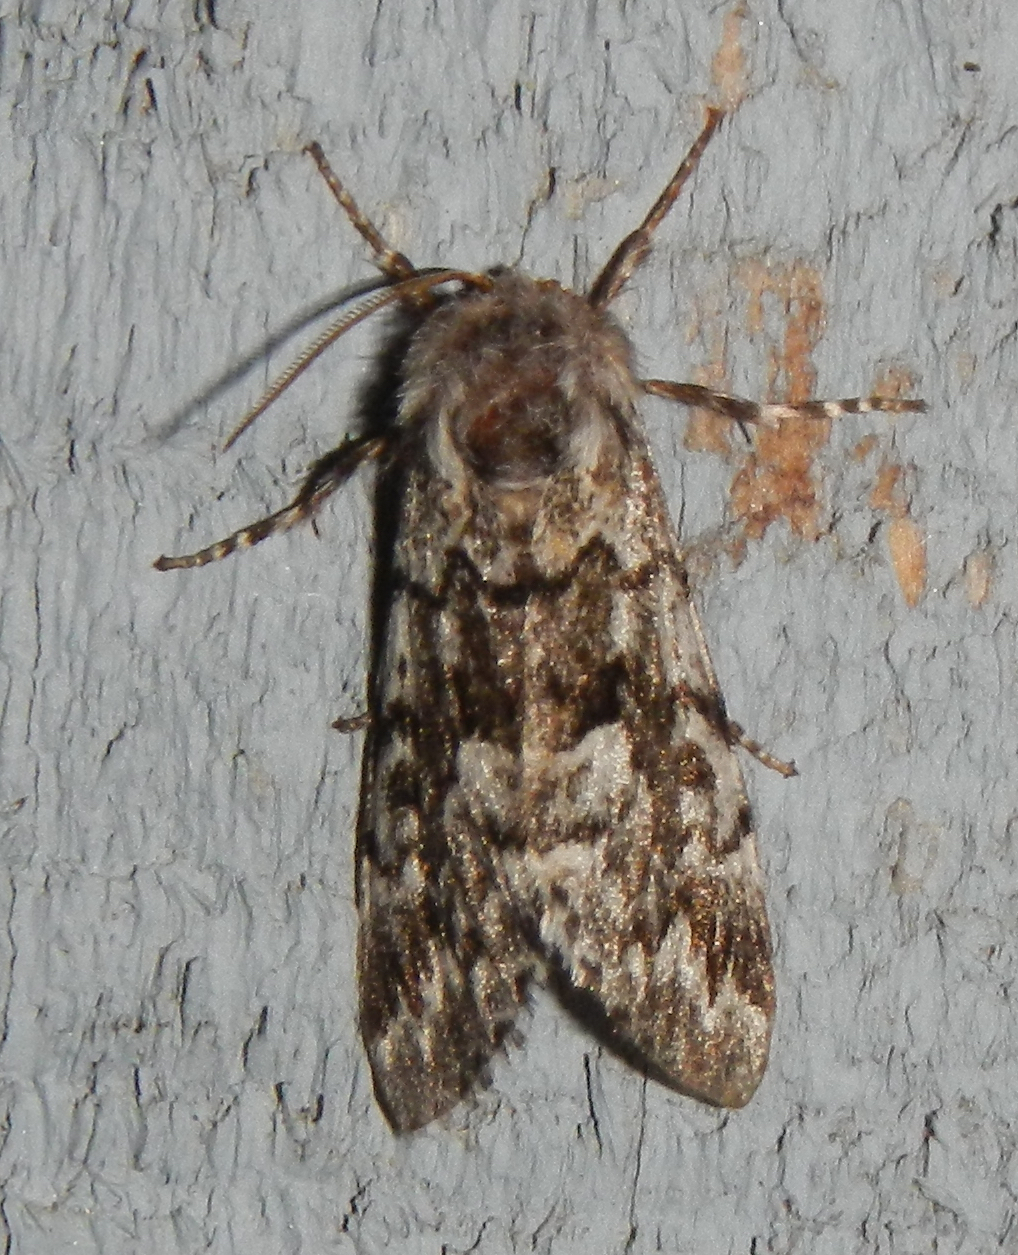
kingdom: Animalia
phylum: Arthropoda
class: Insecta
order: Lepidoptera
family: Noctuidae
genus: Panthea
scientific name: Panthea acronyctoides
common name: Black zigzag moth
